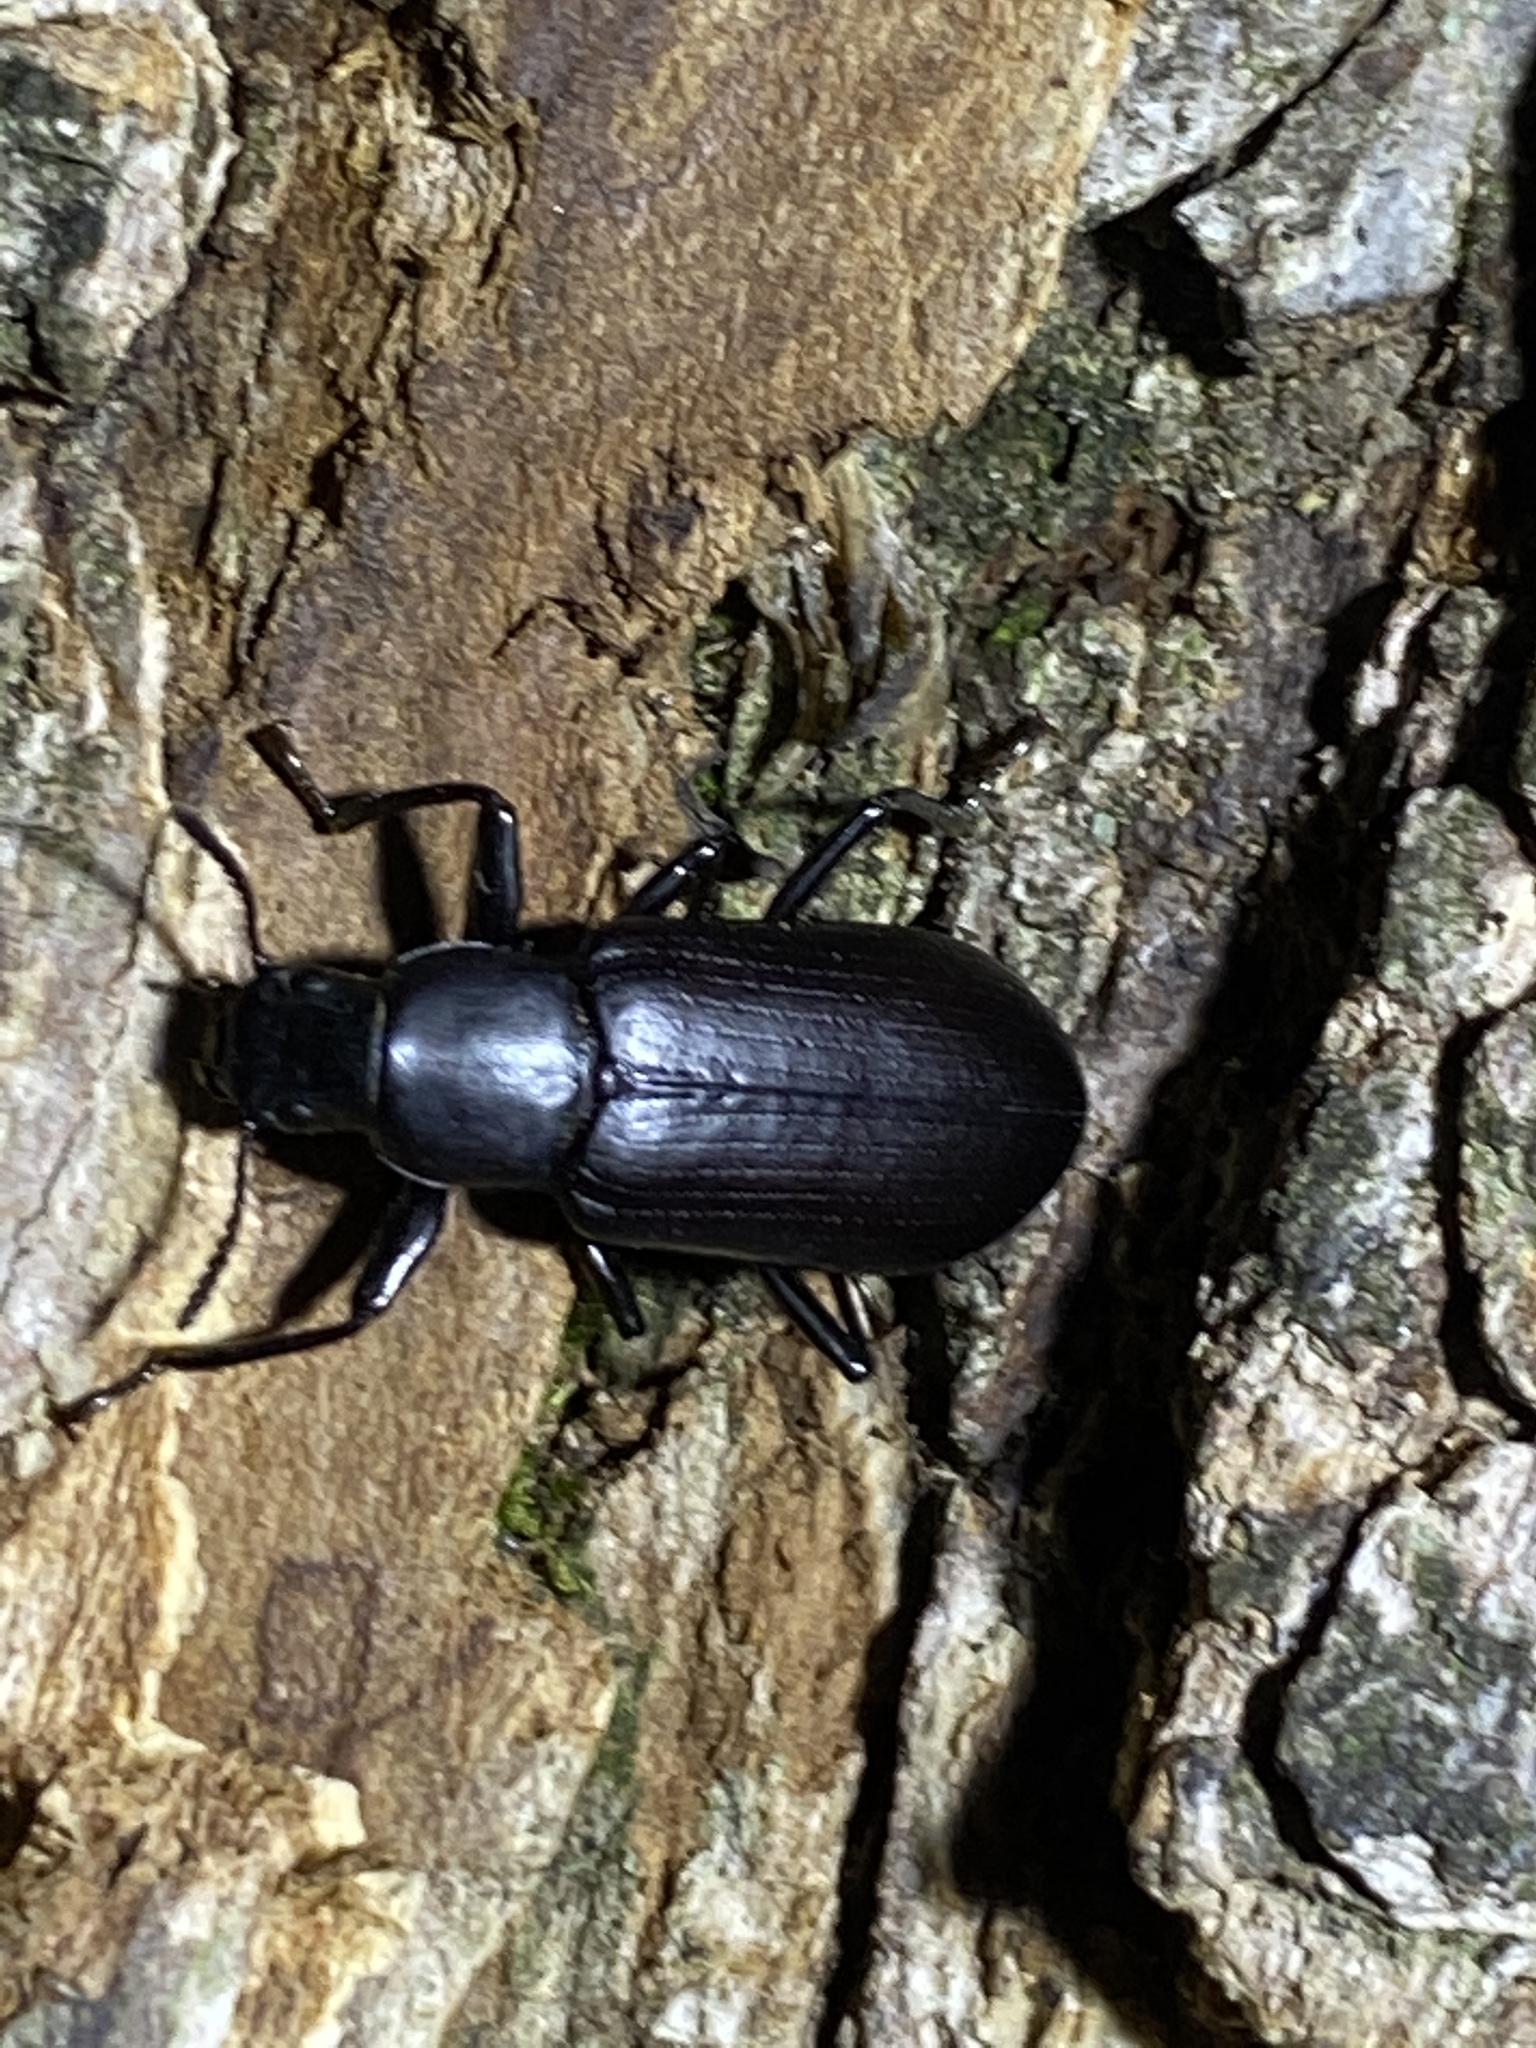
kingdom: Animalia
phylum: Arthropoda
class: Insecta
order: Coleoptera
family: Tenebrionidae
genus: Alobates
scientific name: Alobates pensylvanicus
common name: False mealworm beetle
